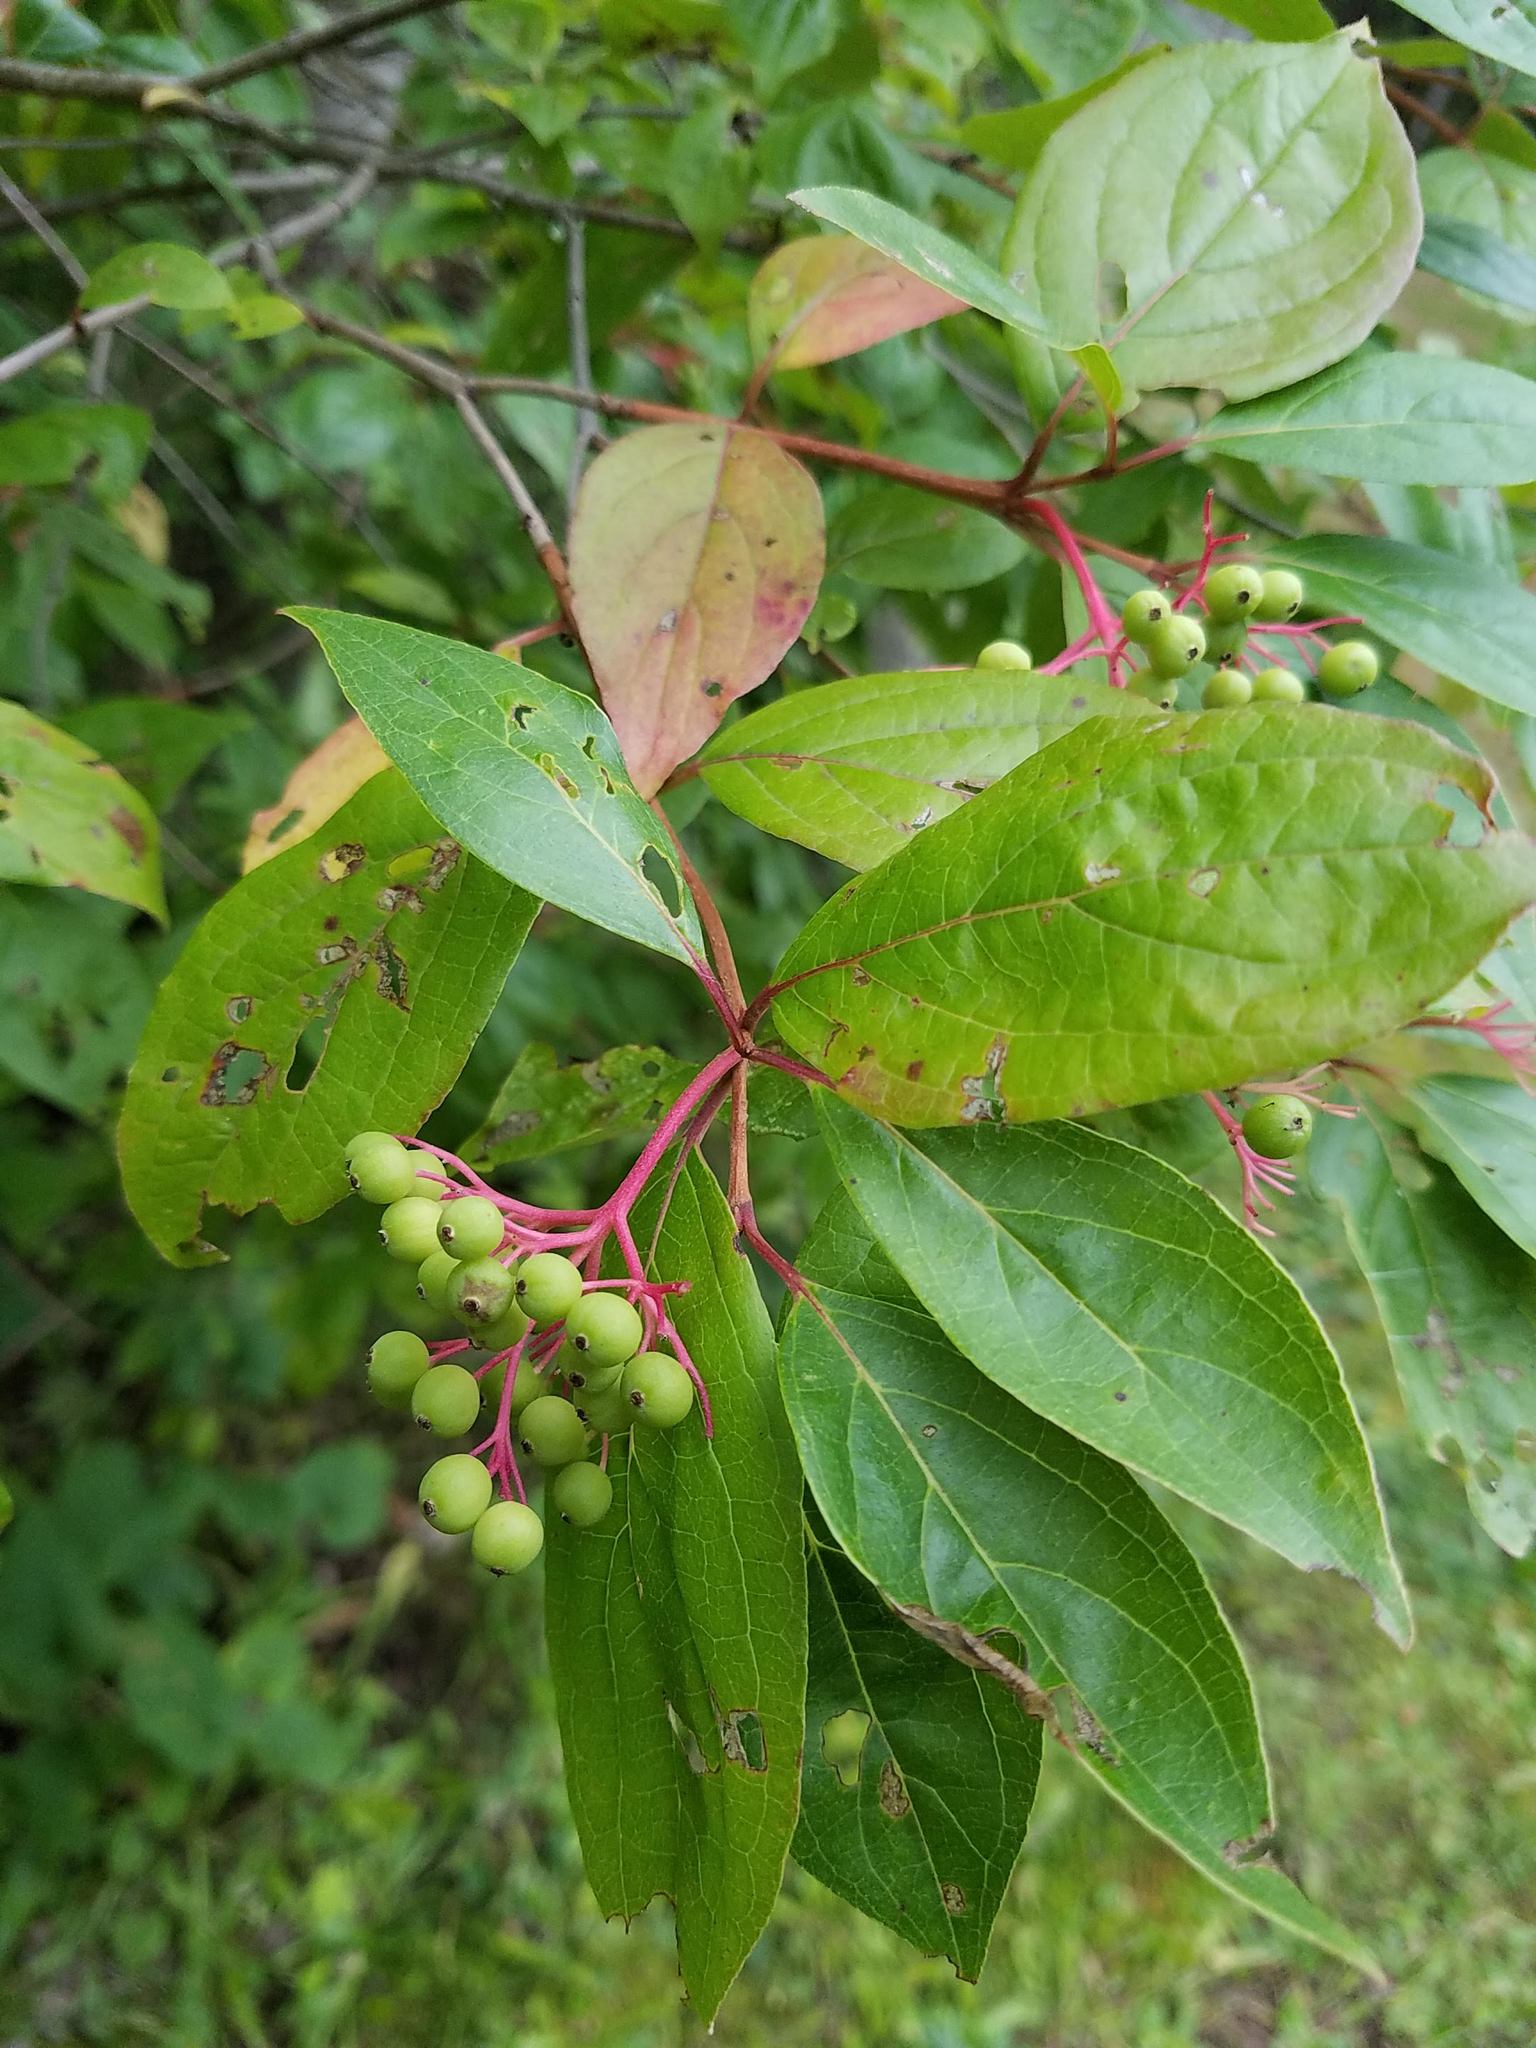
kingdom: Plantae
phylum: Tracheophyta
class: Magnoliopsida
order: Cornales
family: Cornaceae
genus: Cornus
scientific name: Cornus racemosa
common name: Panicled dogwood
